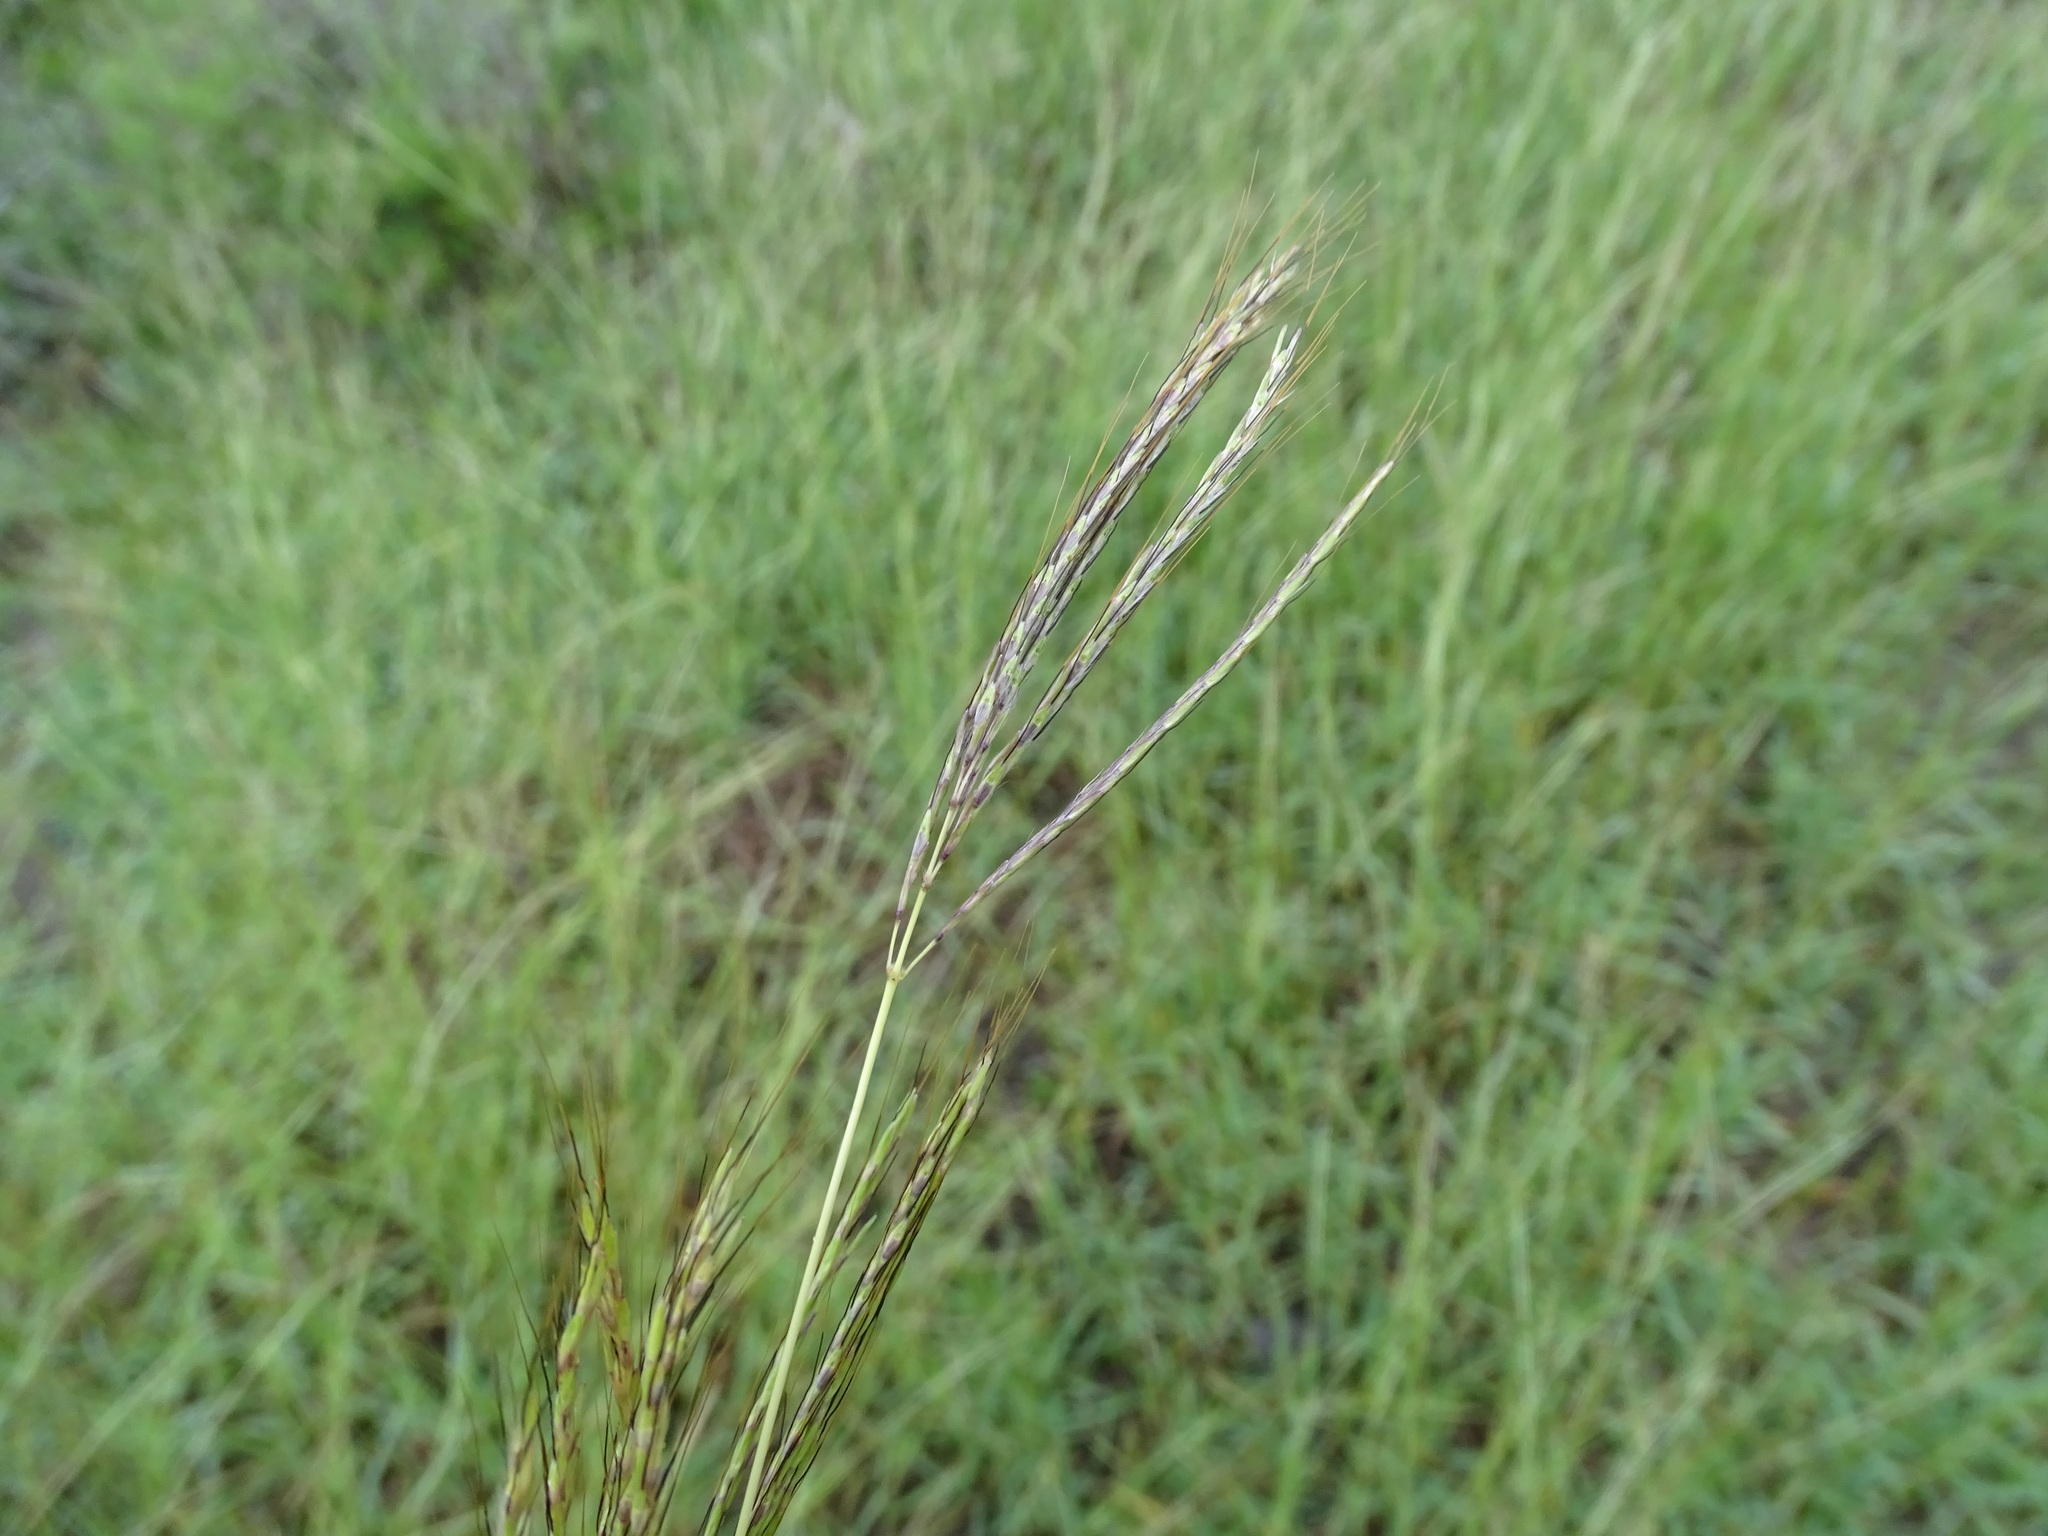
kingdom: Plantae
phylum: Tracheophyta
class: Liliopsida
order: Poales
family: Poaceae
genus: Dichanthium
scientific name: Dichanthium annulatum
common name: Kleberg's bluestem
